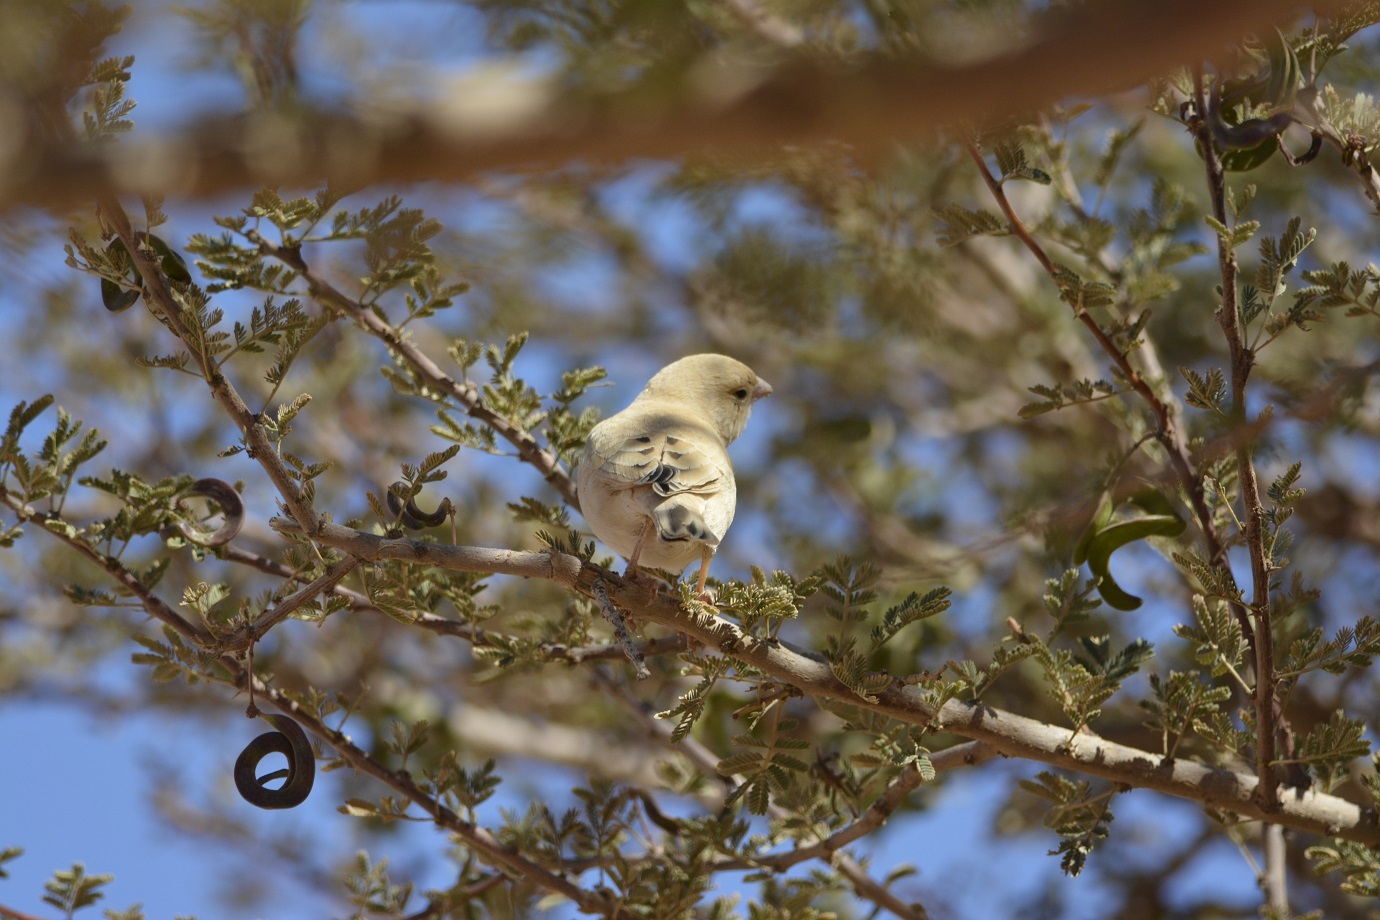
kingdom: Animalia
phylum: Chordata
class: Aves
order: Passeriformes
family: Passeridae
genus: Passer
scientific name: Passer simplex
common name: Desert sparrow
